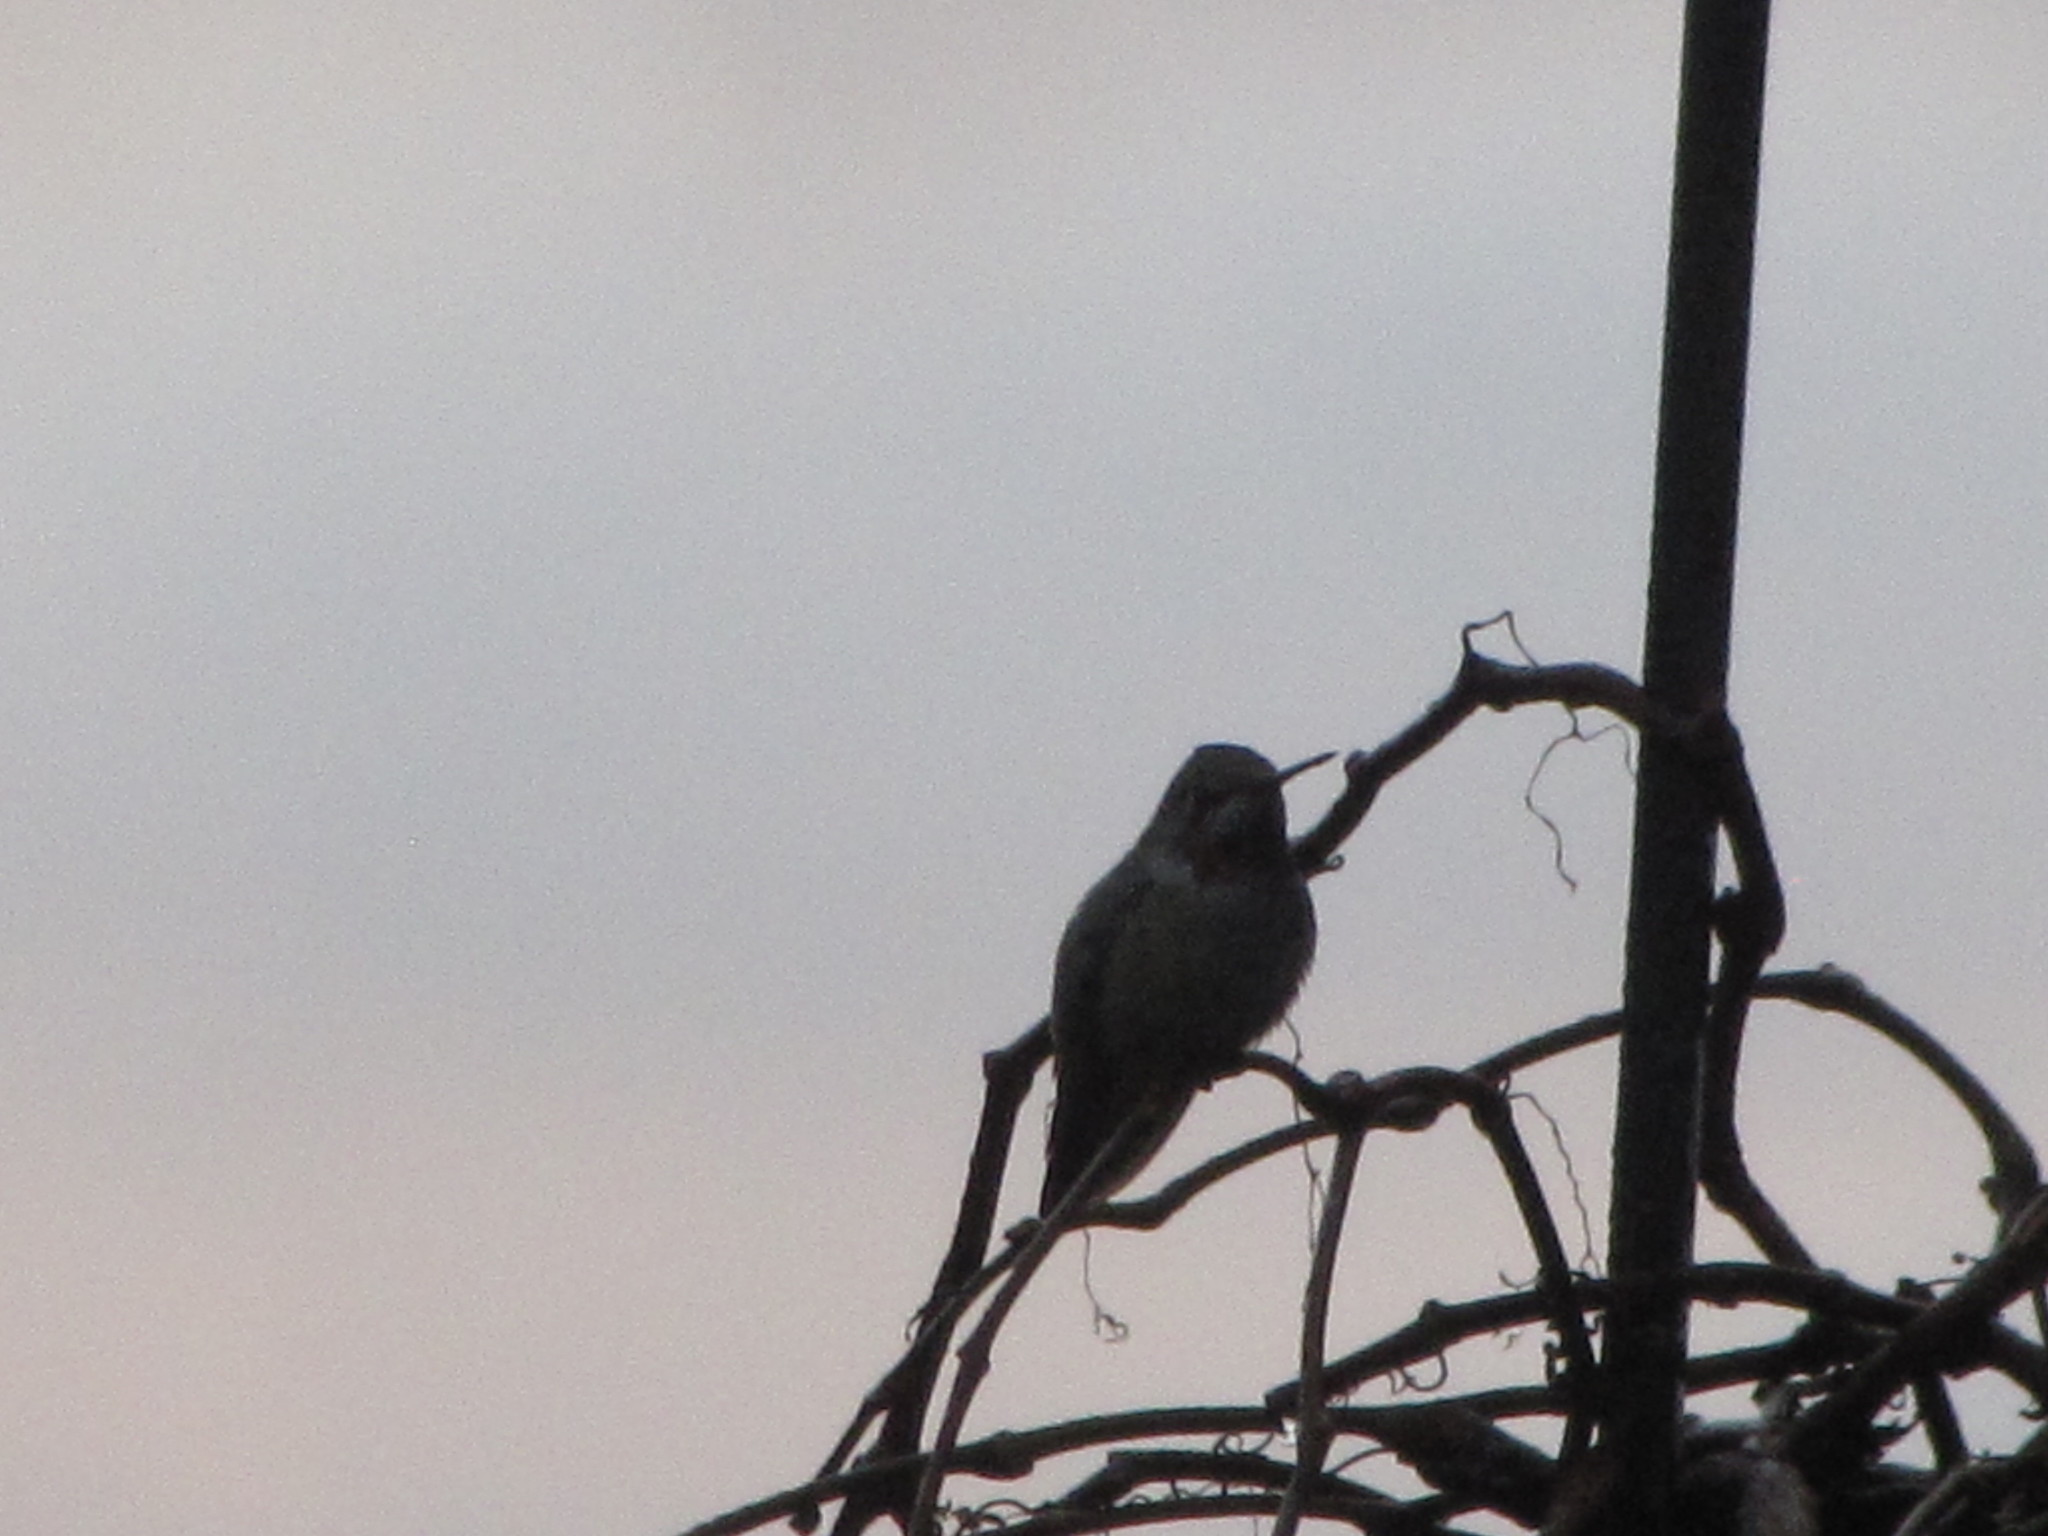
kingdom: Animalia
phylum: Chordata
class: Aves
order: Apodiformes
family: Trochilidae
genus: Calypte
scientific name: Calypte anna
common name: Anna's hummingbird
